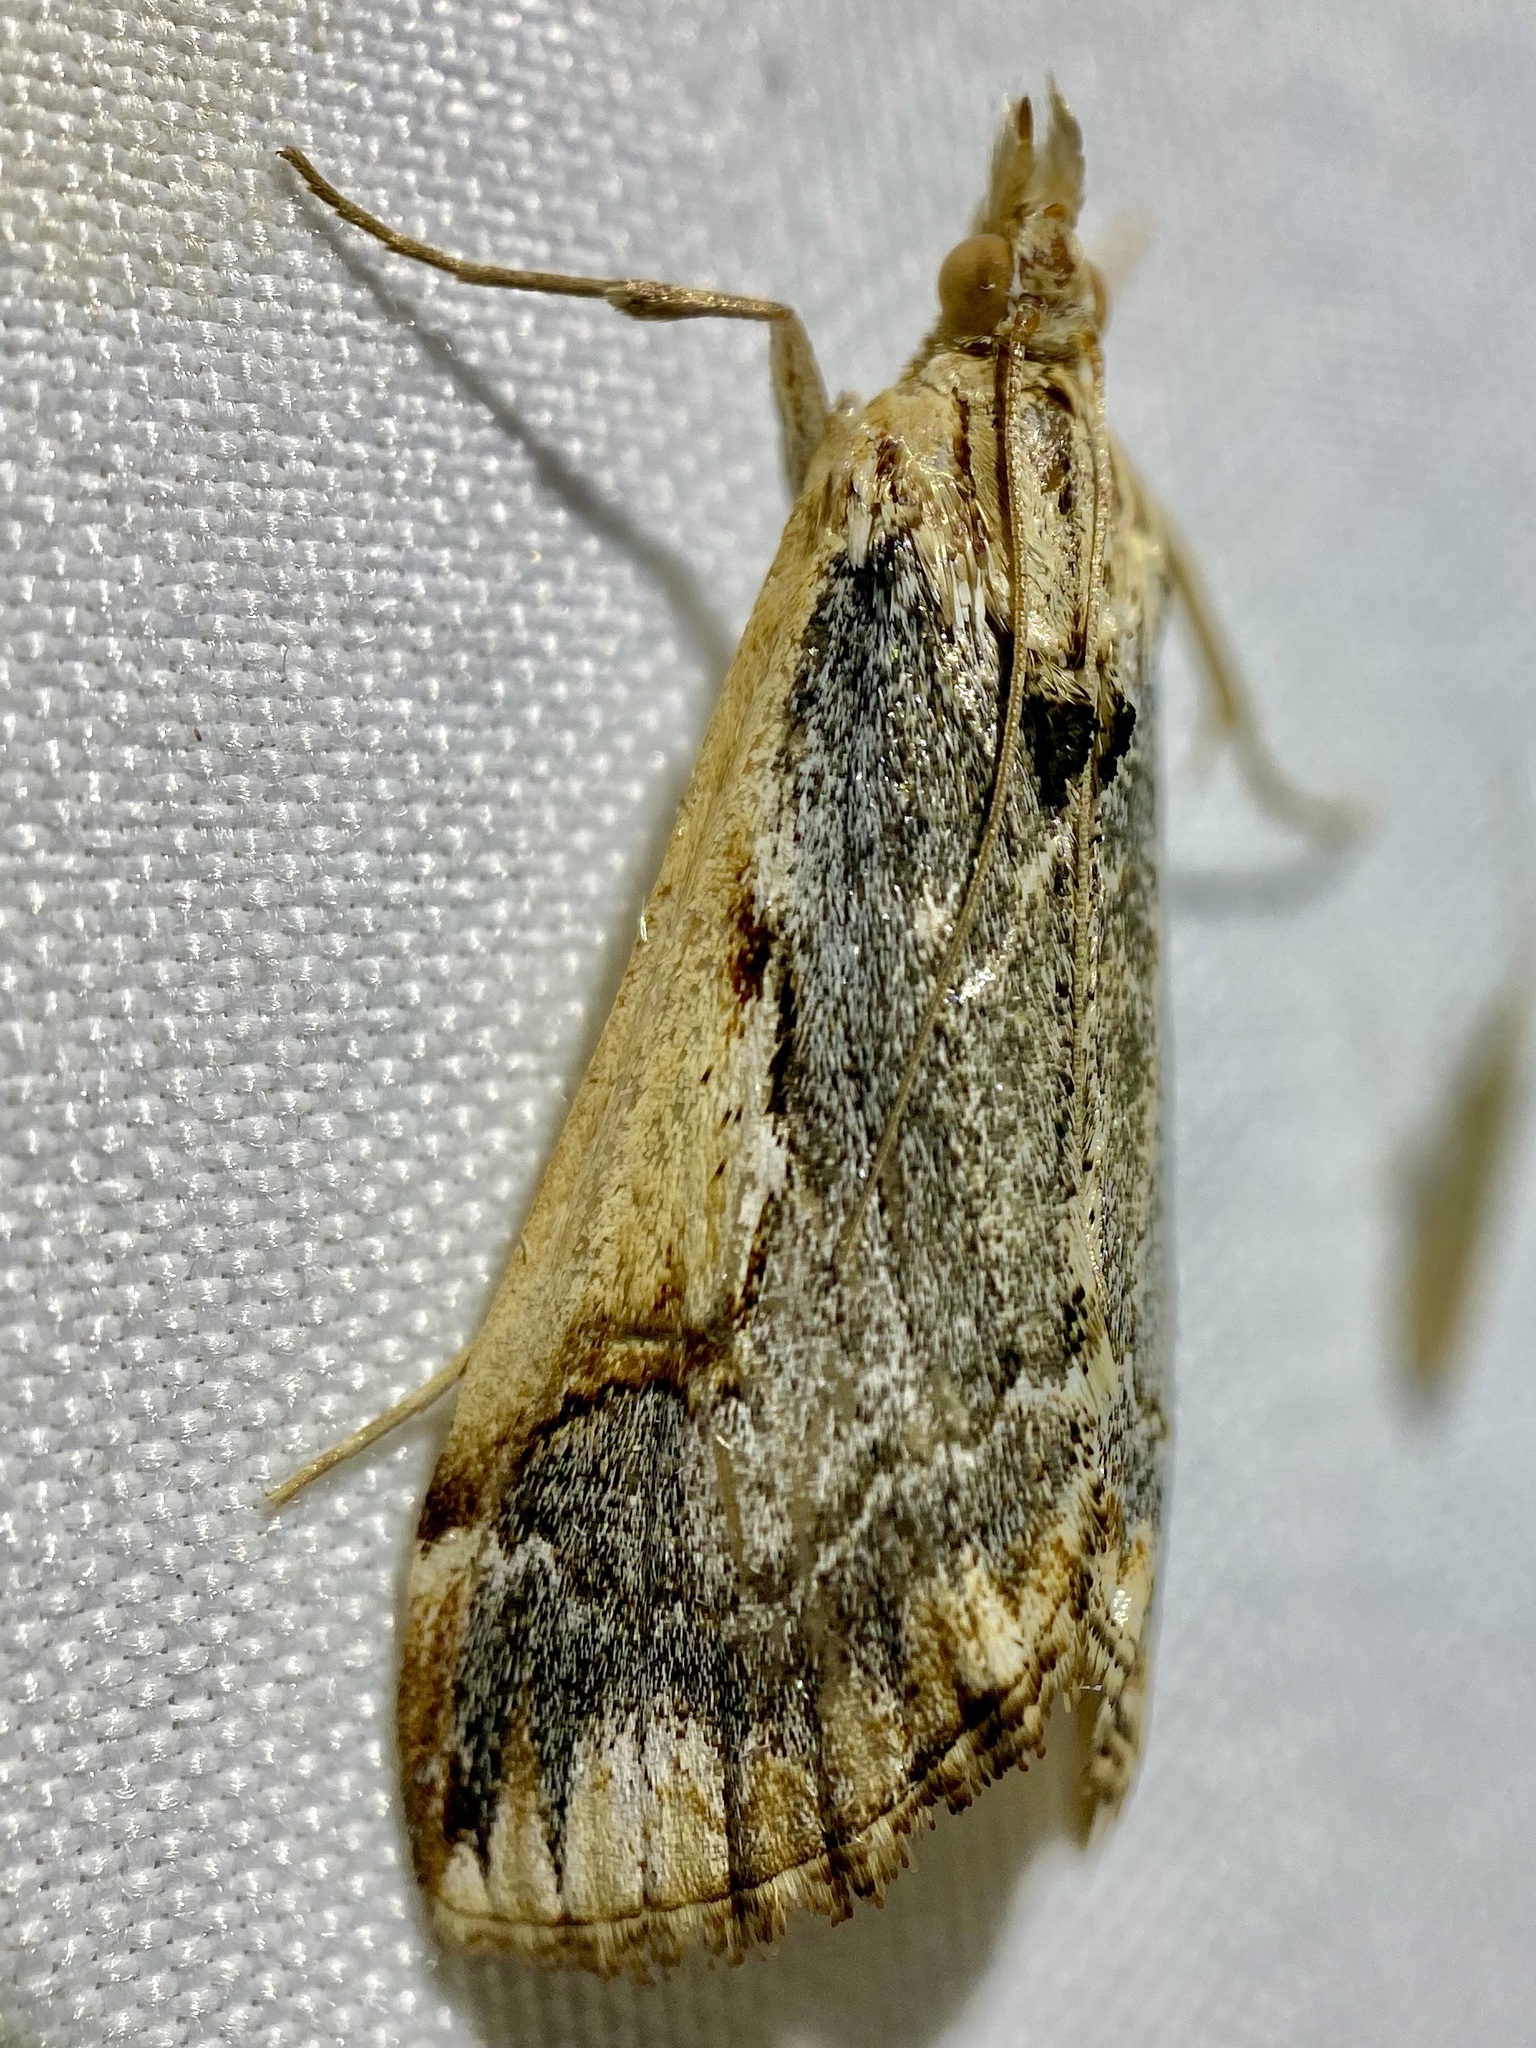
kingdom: Animalia
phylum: Arthropoda
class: Insecta
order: Lepidoptera
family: Crambidae
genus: Loxostege
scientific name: Loxostege albiceralis
